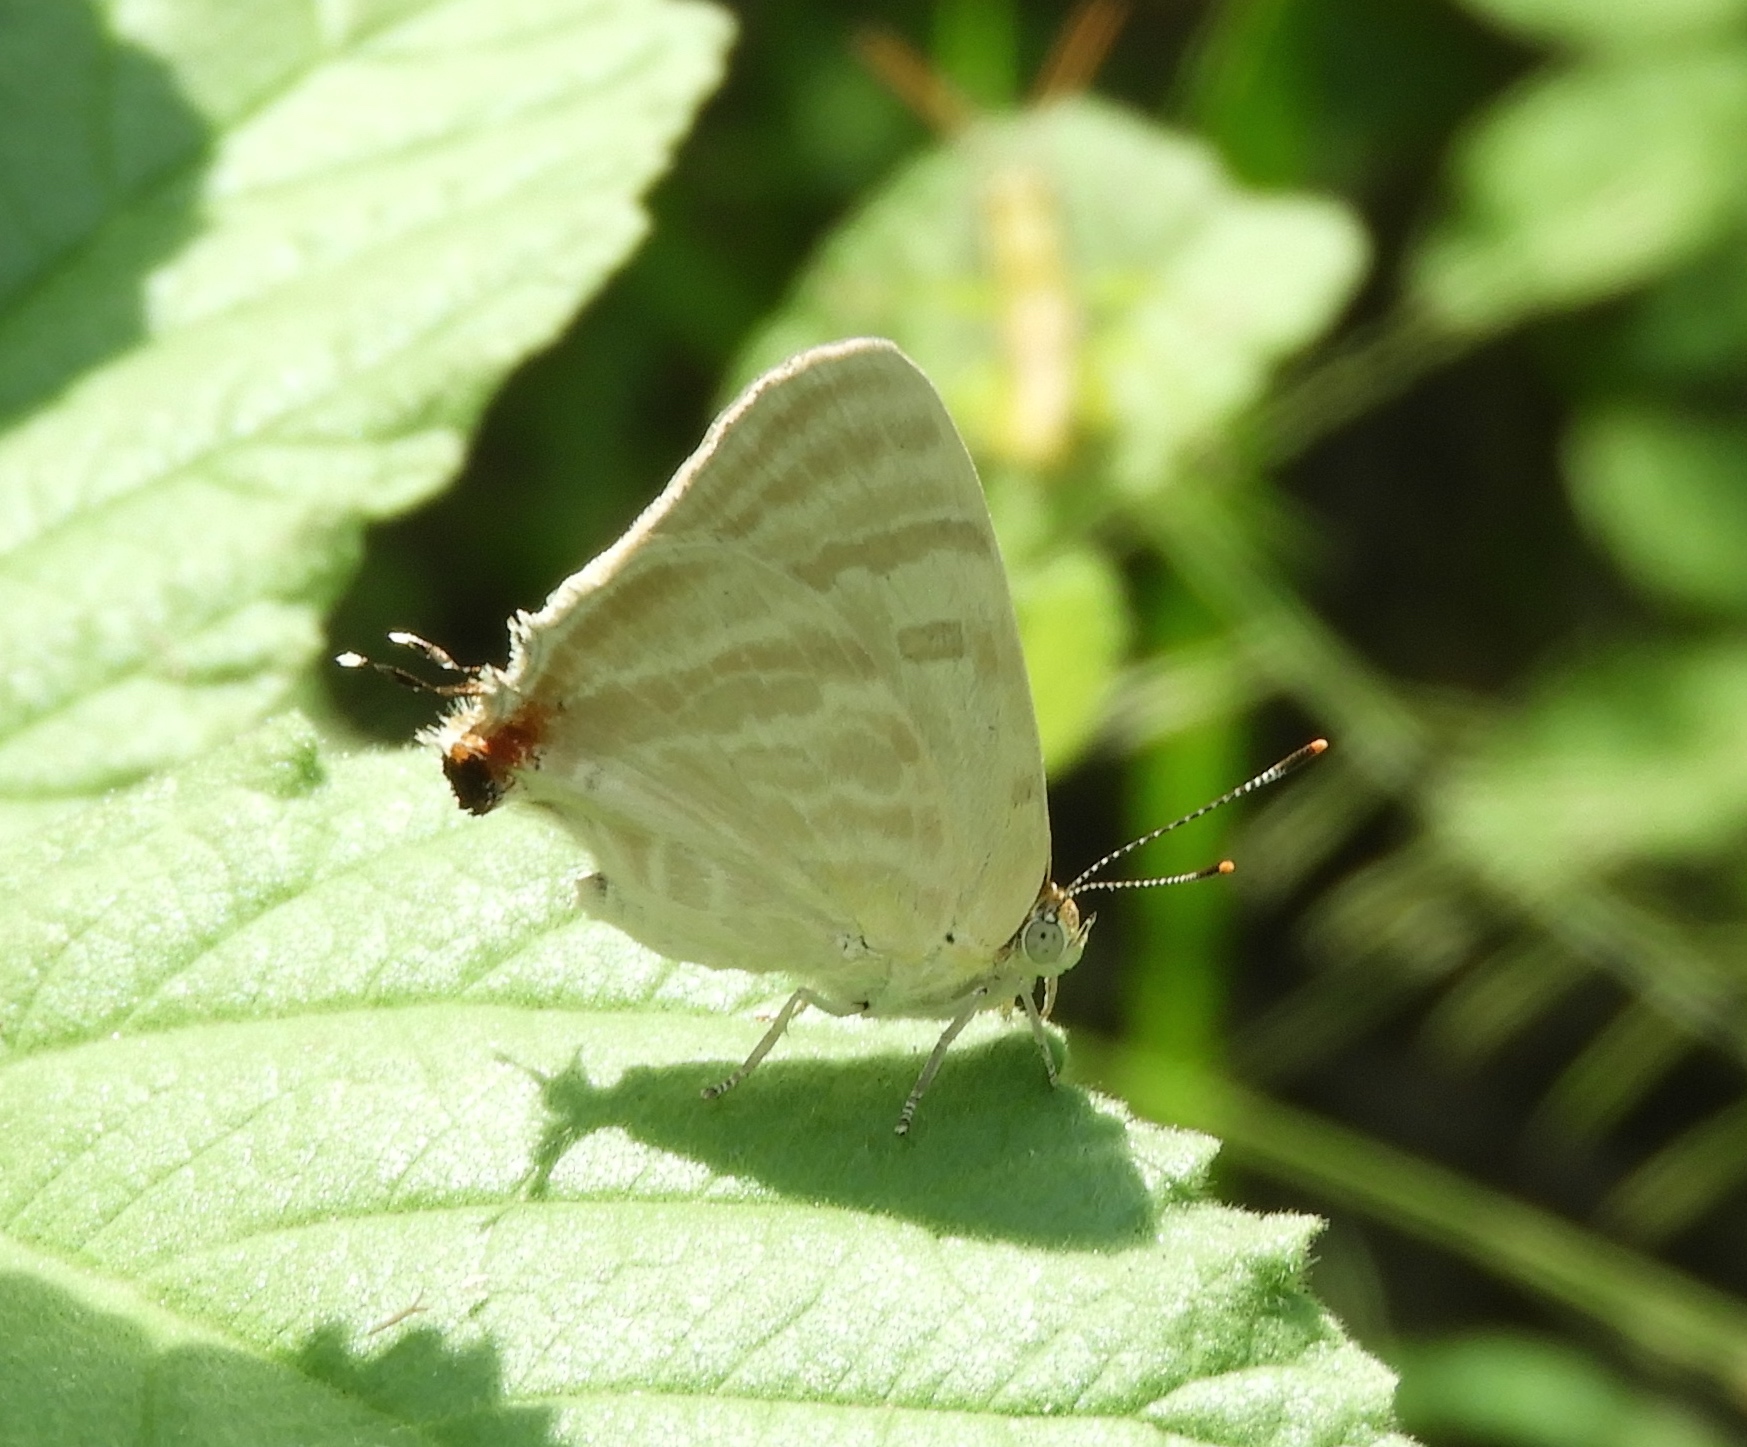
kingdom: Animalia
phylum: Arthropoda
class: Insecta
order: Lepidoptera
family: Lycaenidae
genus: Dolymorpha
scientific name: Dolymorpha jada
